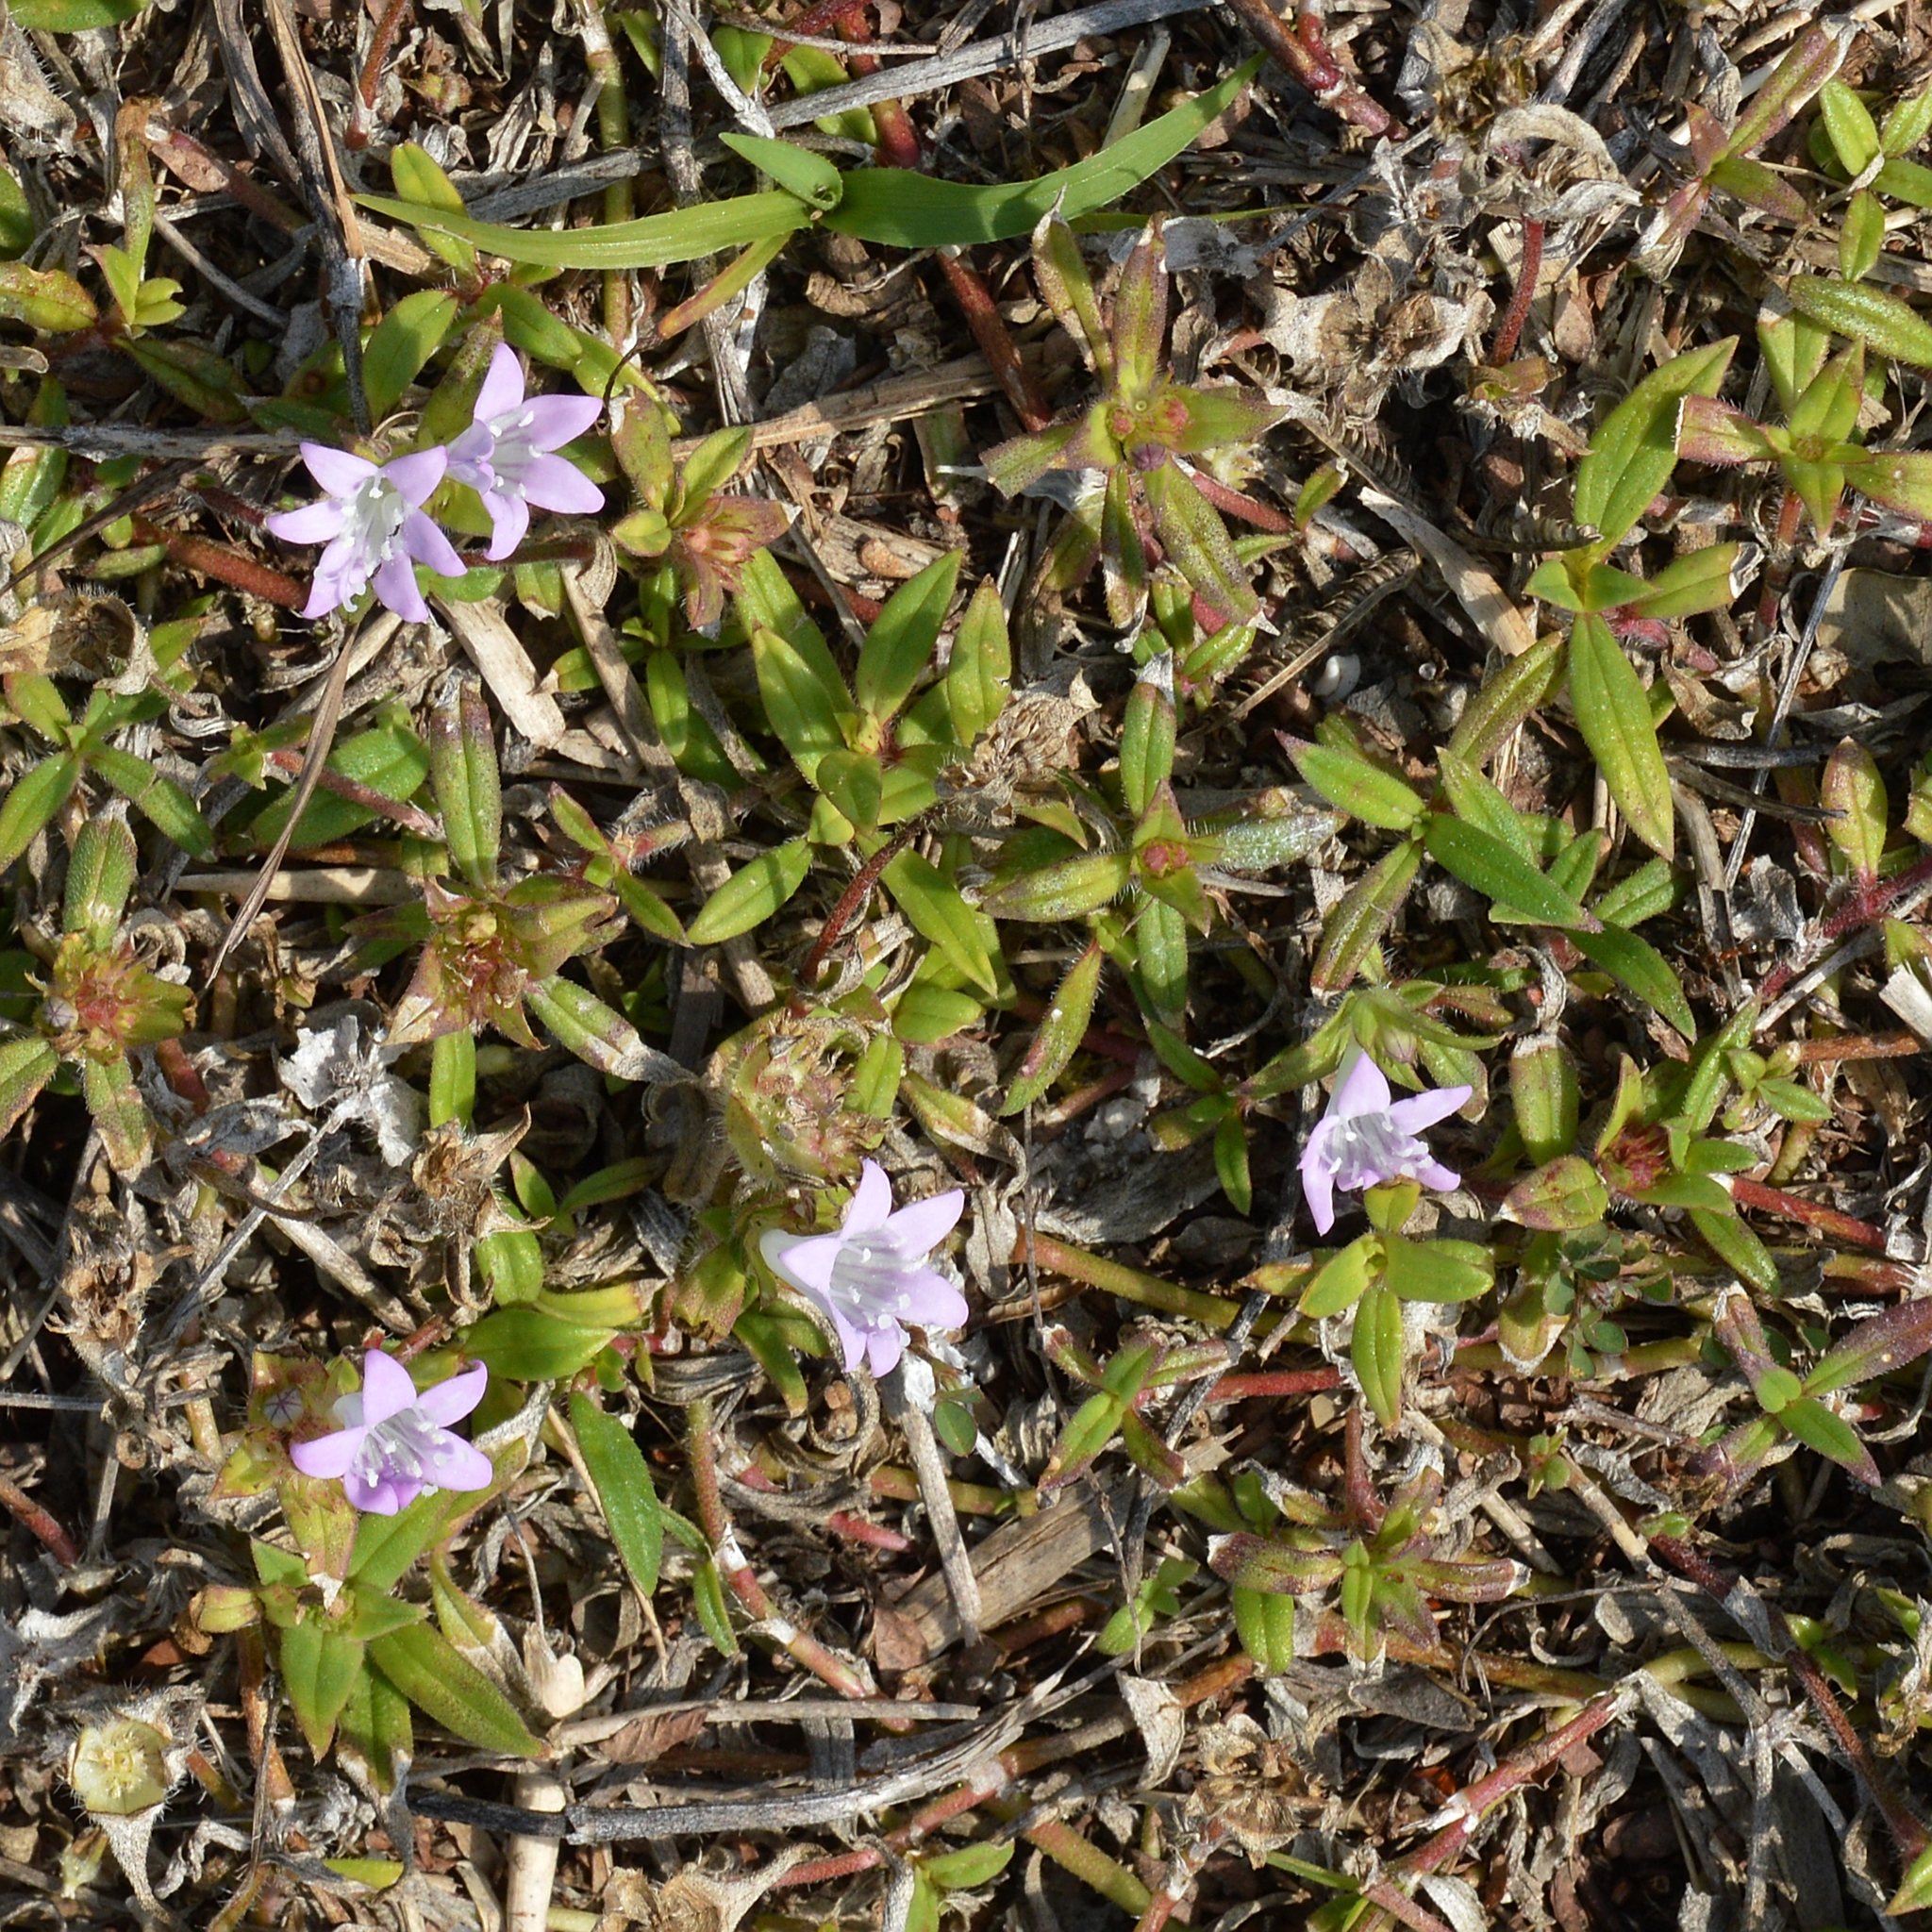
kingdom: Plantae
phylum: Tracheophyta
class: Magnoliopsida
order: Gentianales
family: Rubiaceae
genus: Richardia
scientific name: Richardia grandiflora
